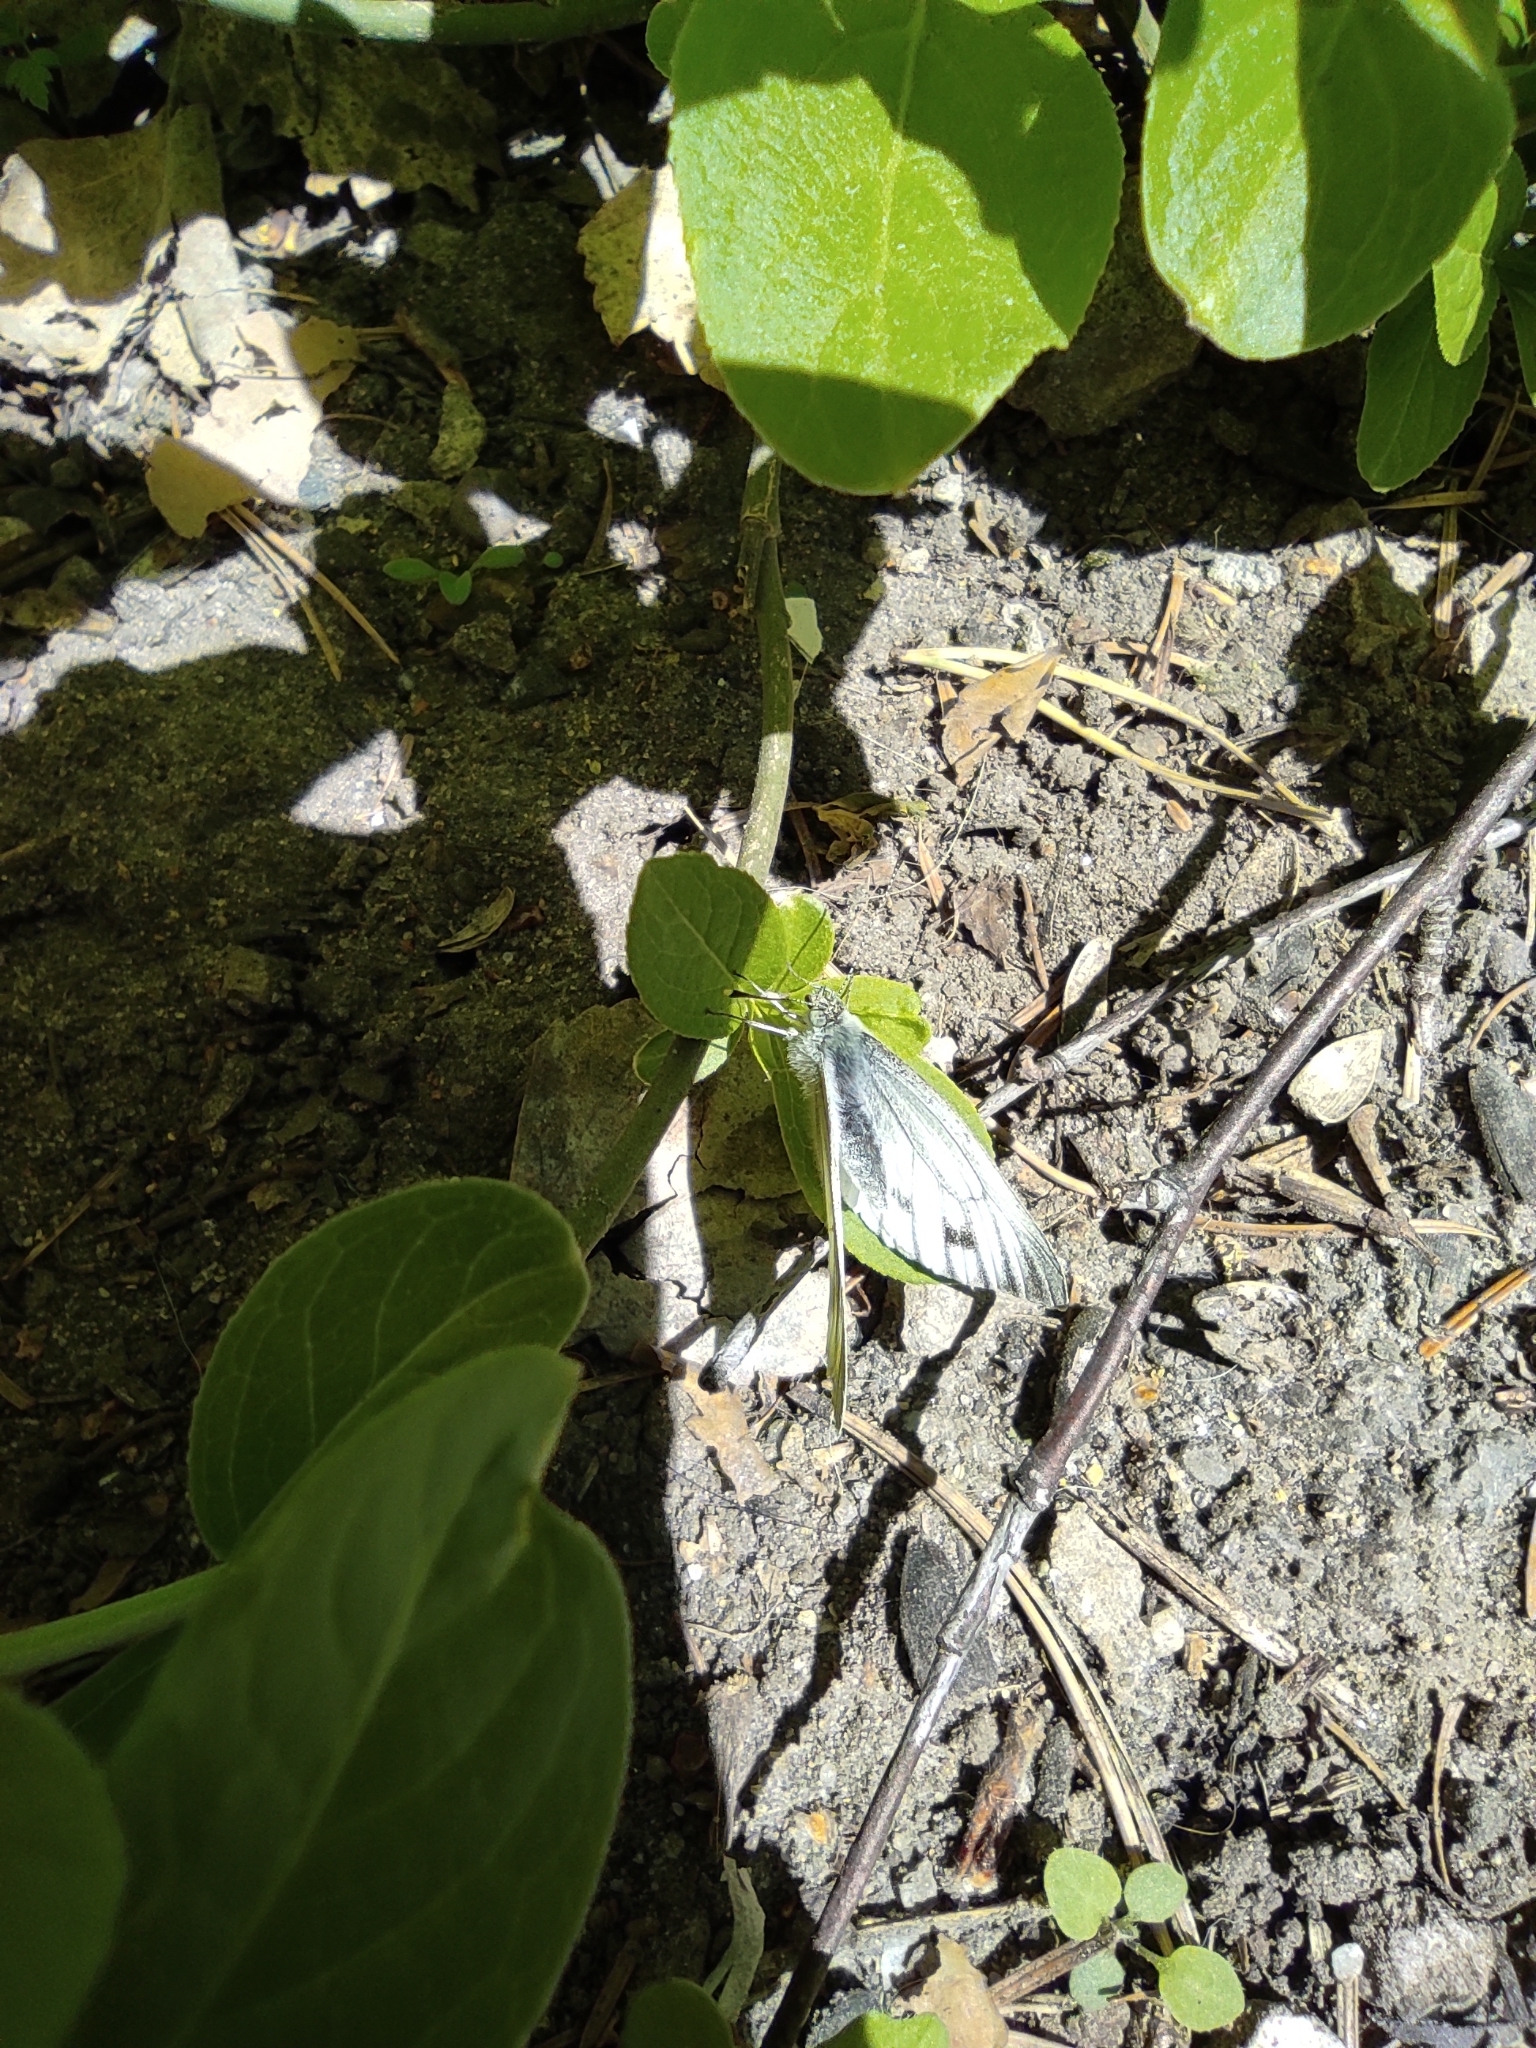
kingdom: Animalia
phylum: Arthropoda
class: Insecta
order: Lepidoptera
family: Pieridae
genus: Pieris
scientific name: Pieris napi
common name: Green-veined white
